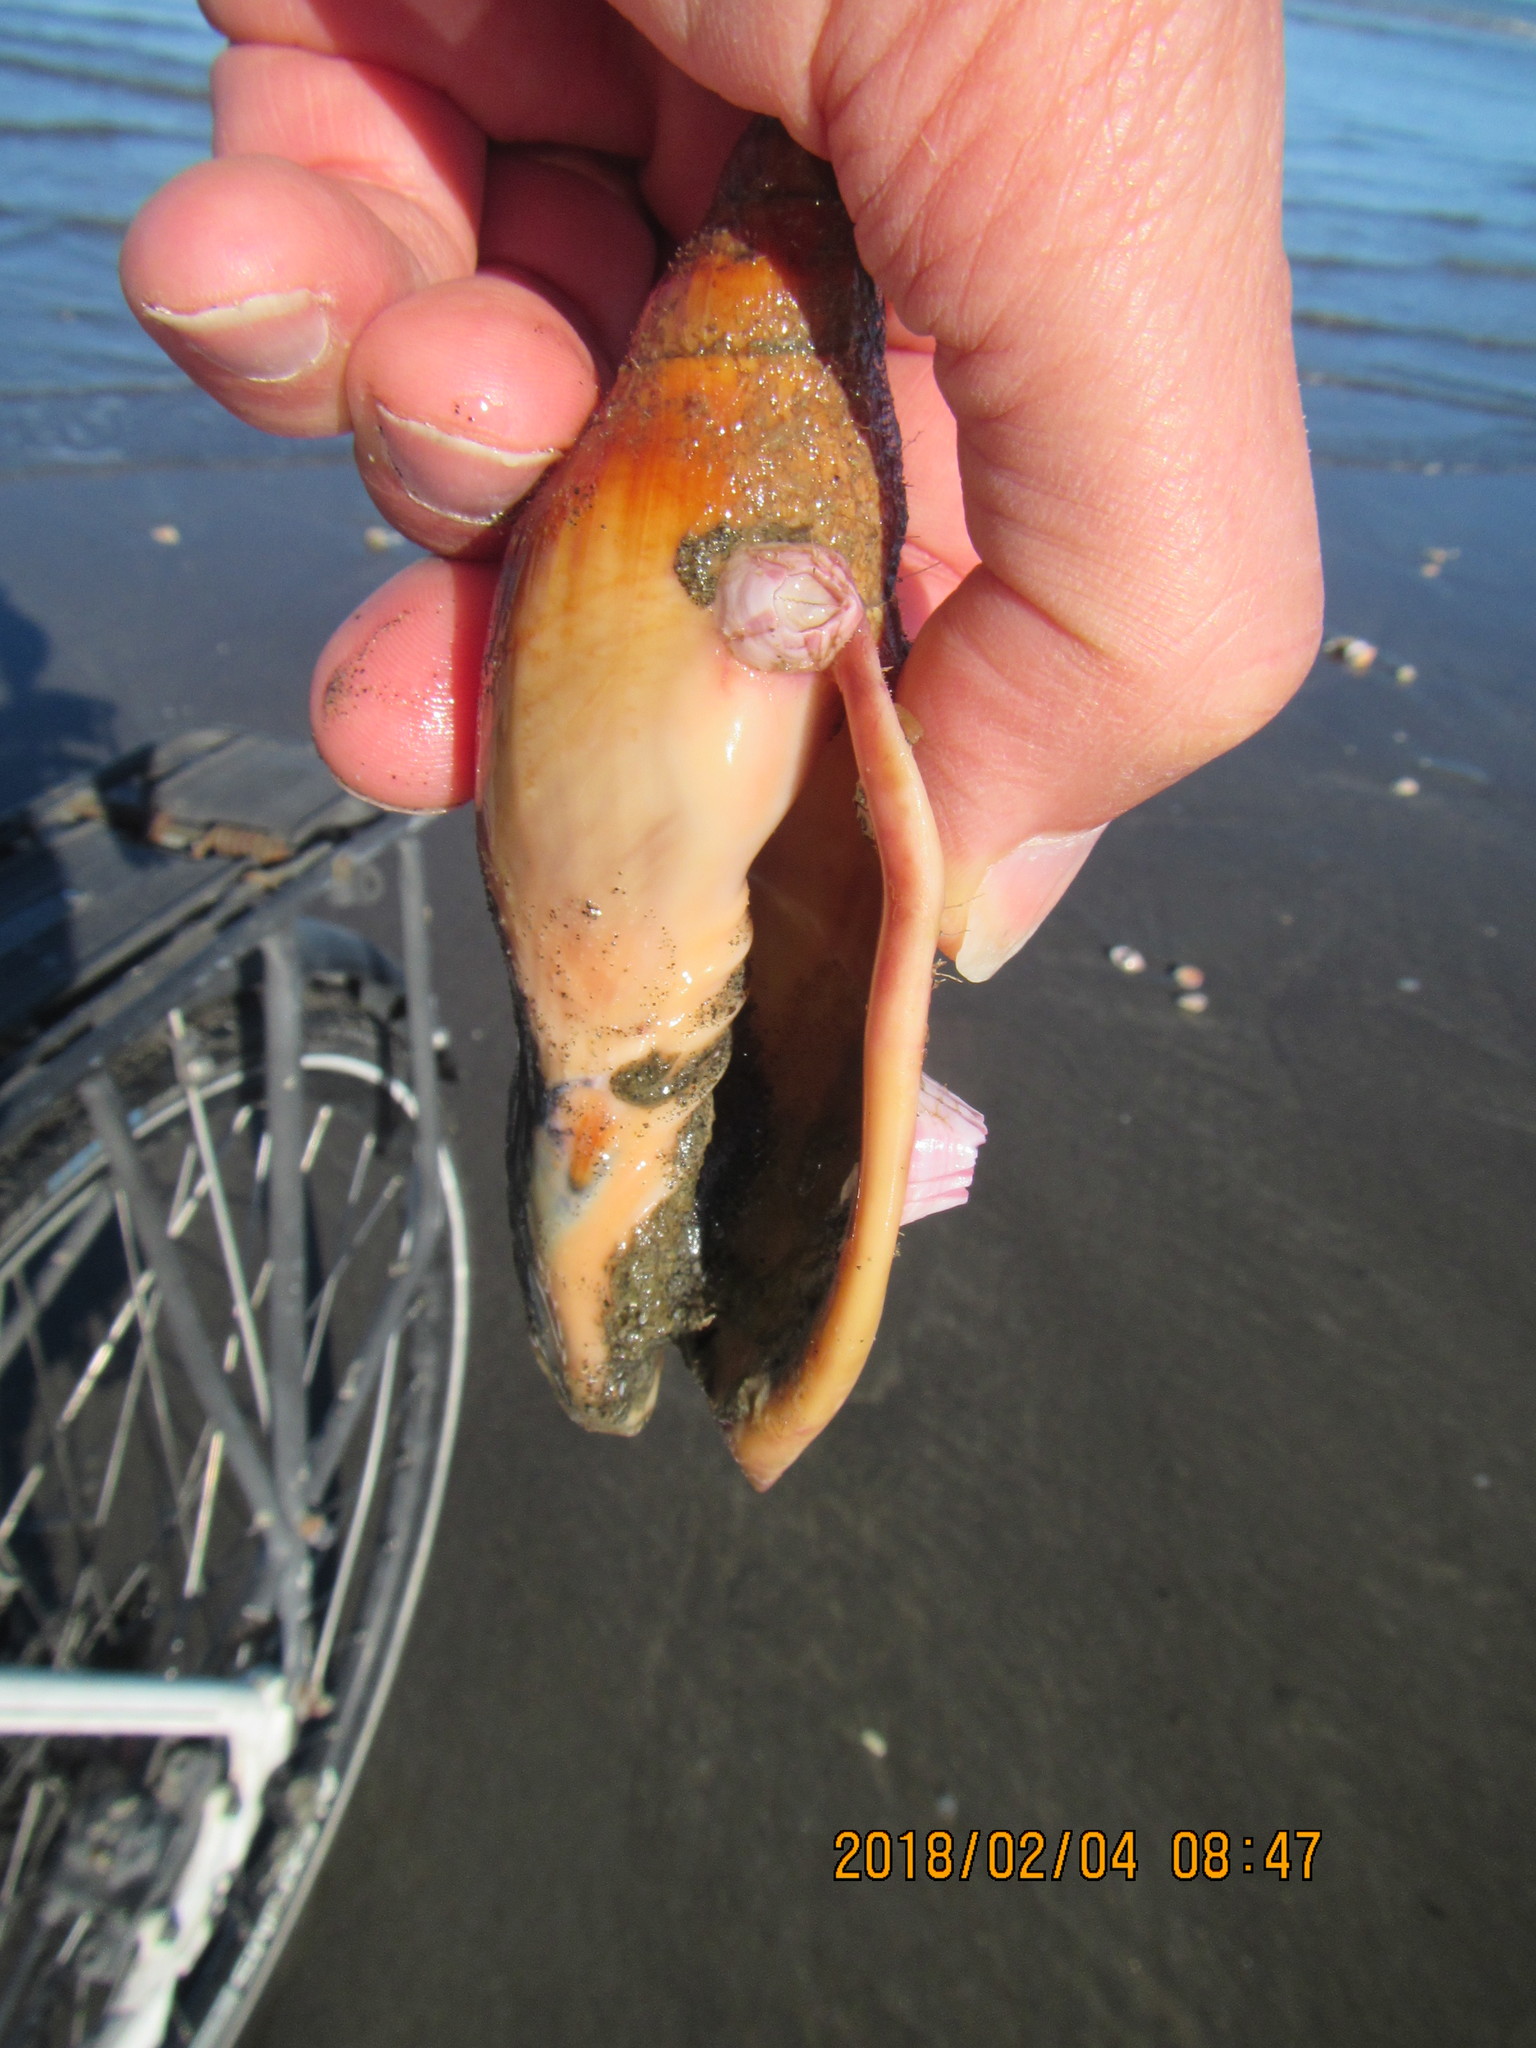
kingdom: Animalia
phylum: Arthropoda
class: Maxillopoda
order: Sessilia
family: Balanidae
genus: Notomegabalanus
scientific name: Notomegabalanus decorus
